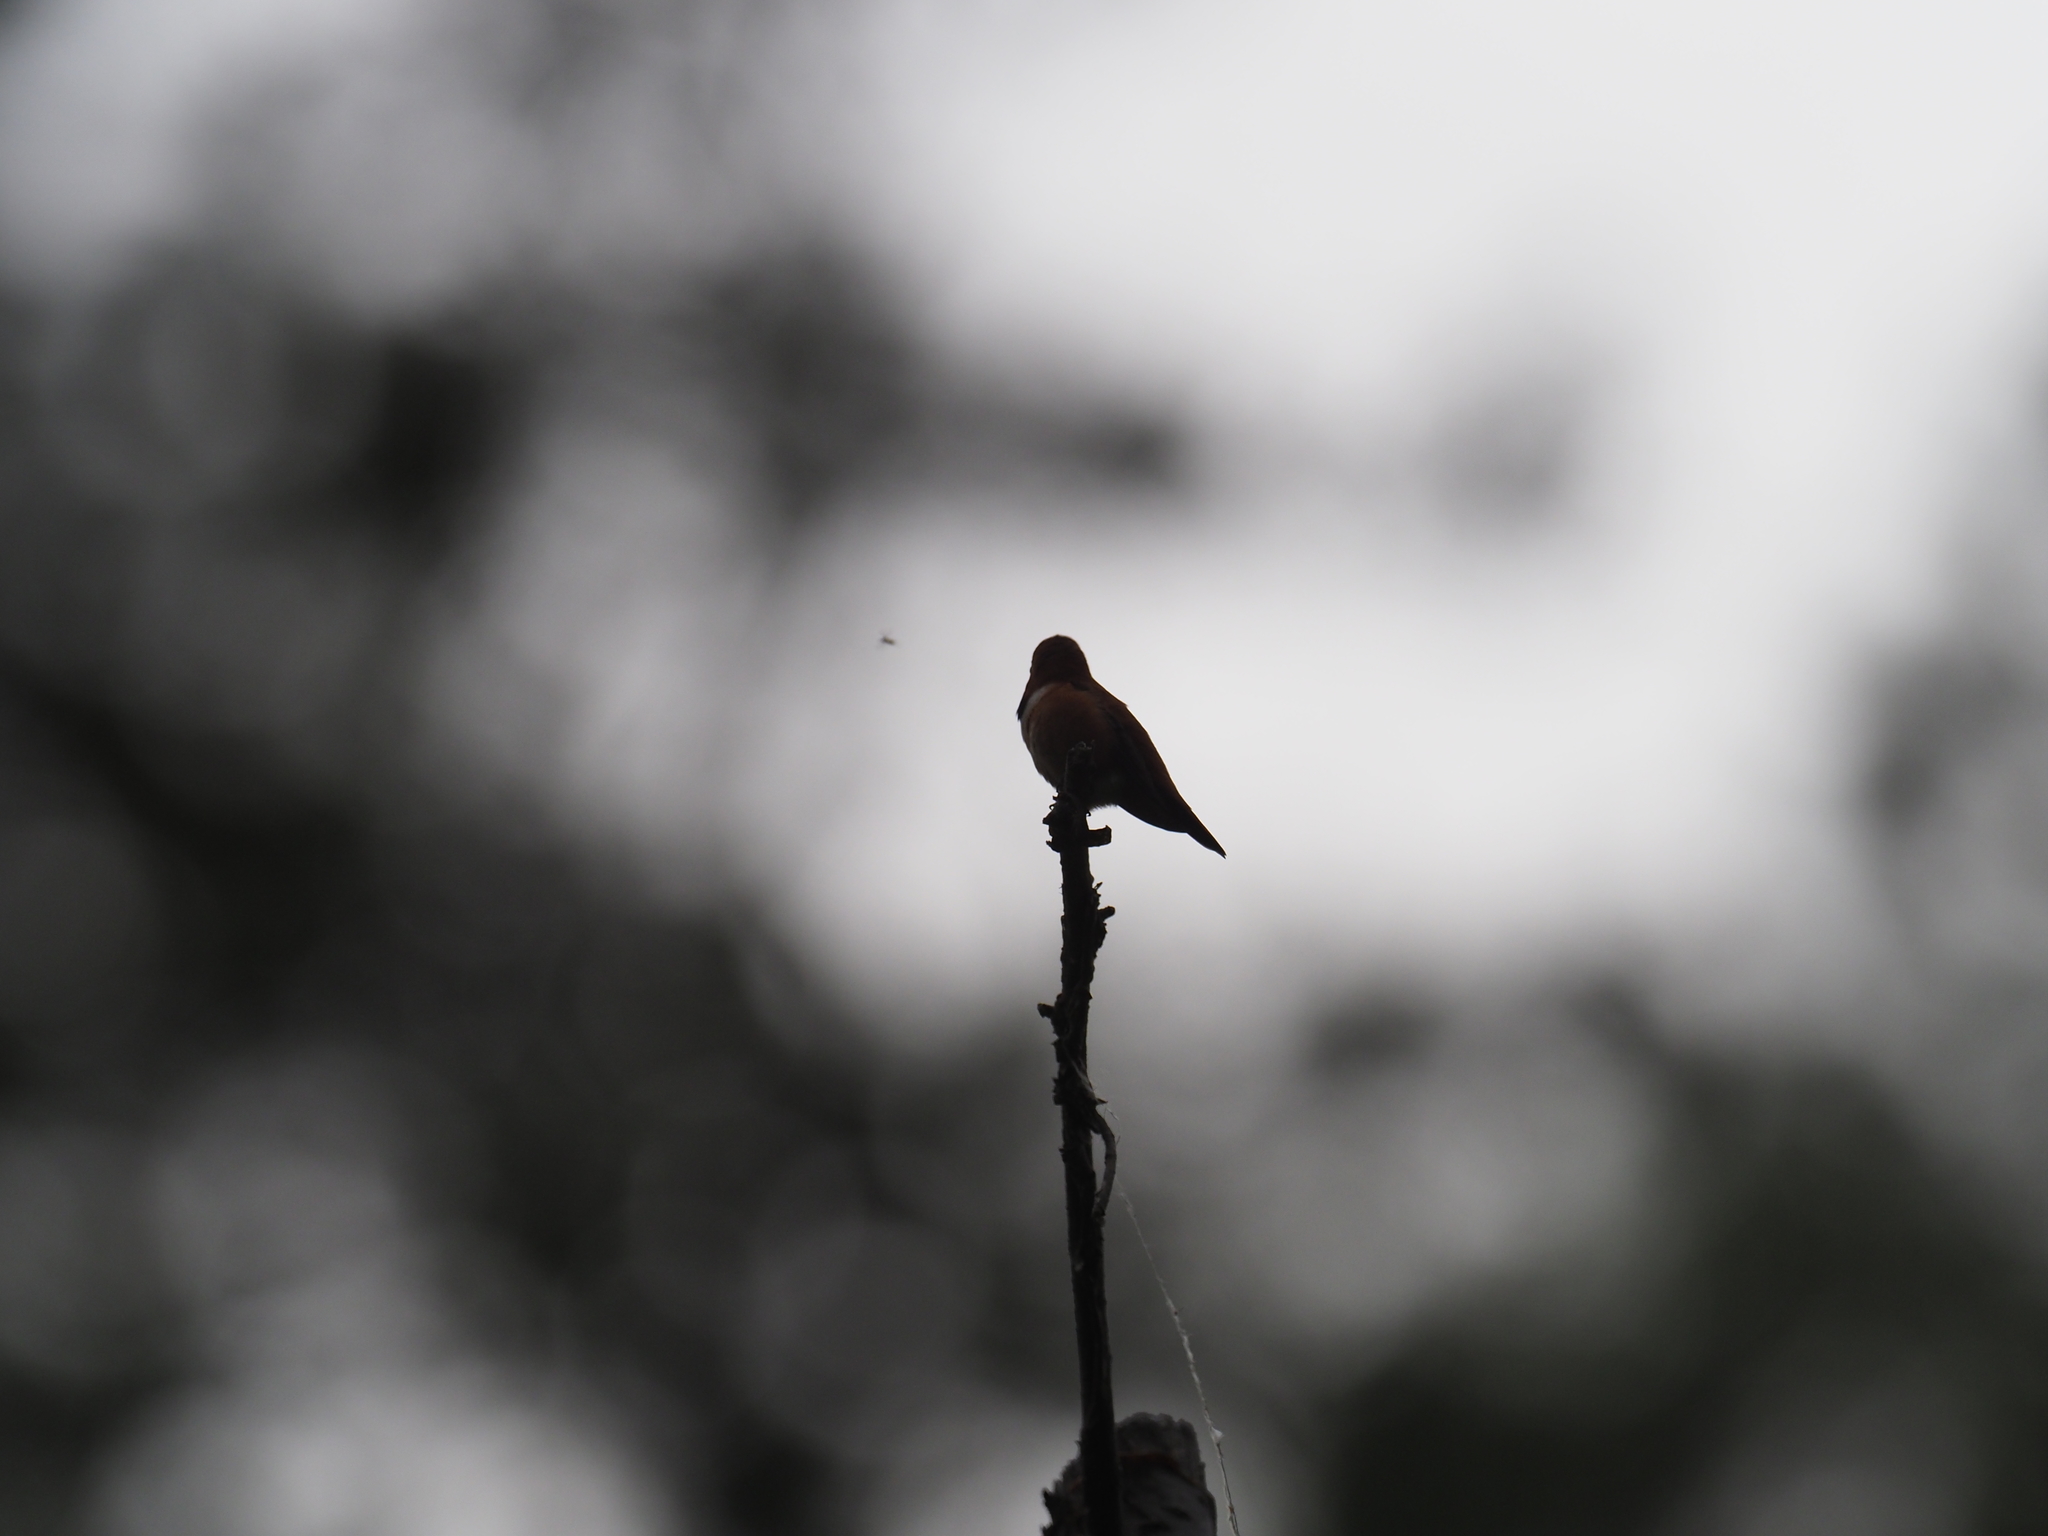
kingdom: Animalia
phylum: Chordata
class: Aves
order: Apodiformes
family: Trochilidae
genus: Selasphorus
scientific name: Selasphorus rufus
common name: Rufous hummingbird
